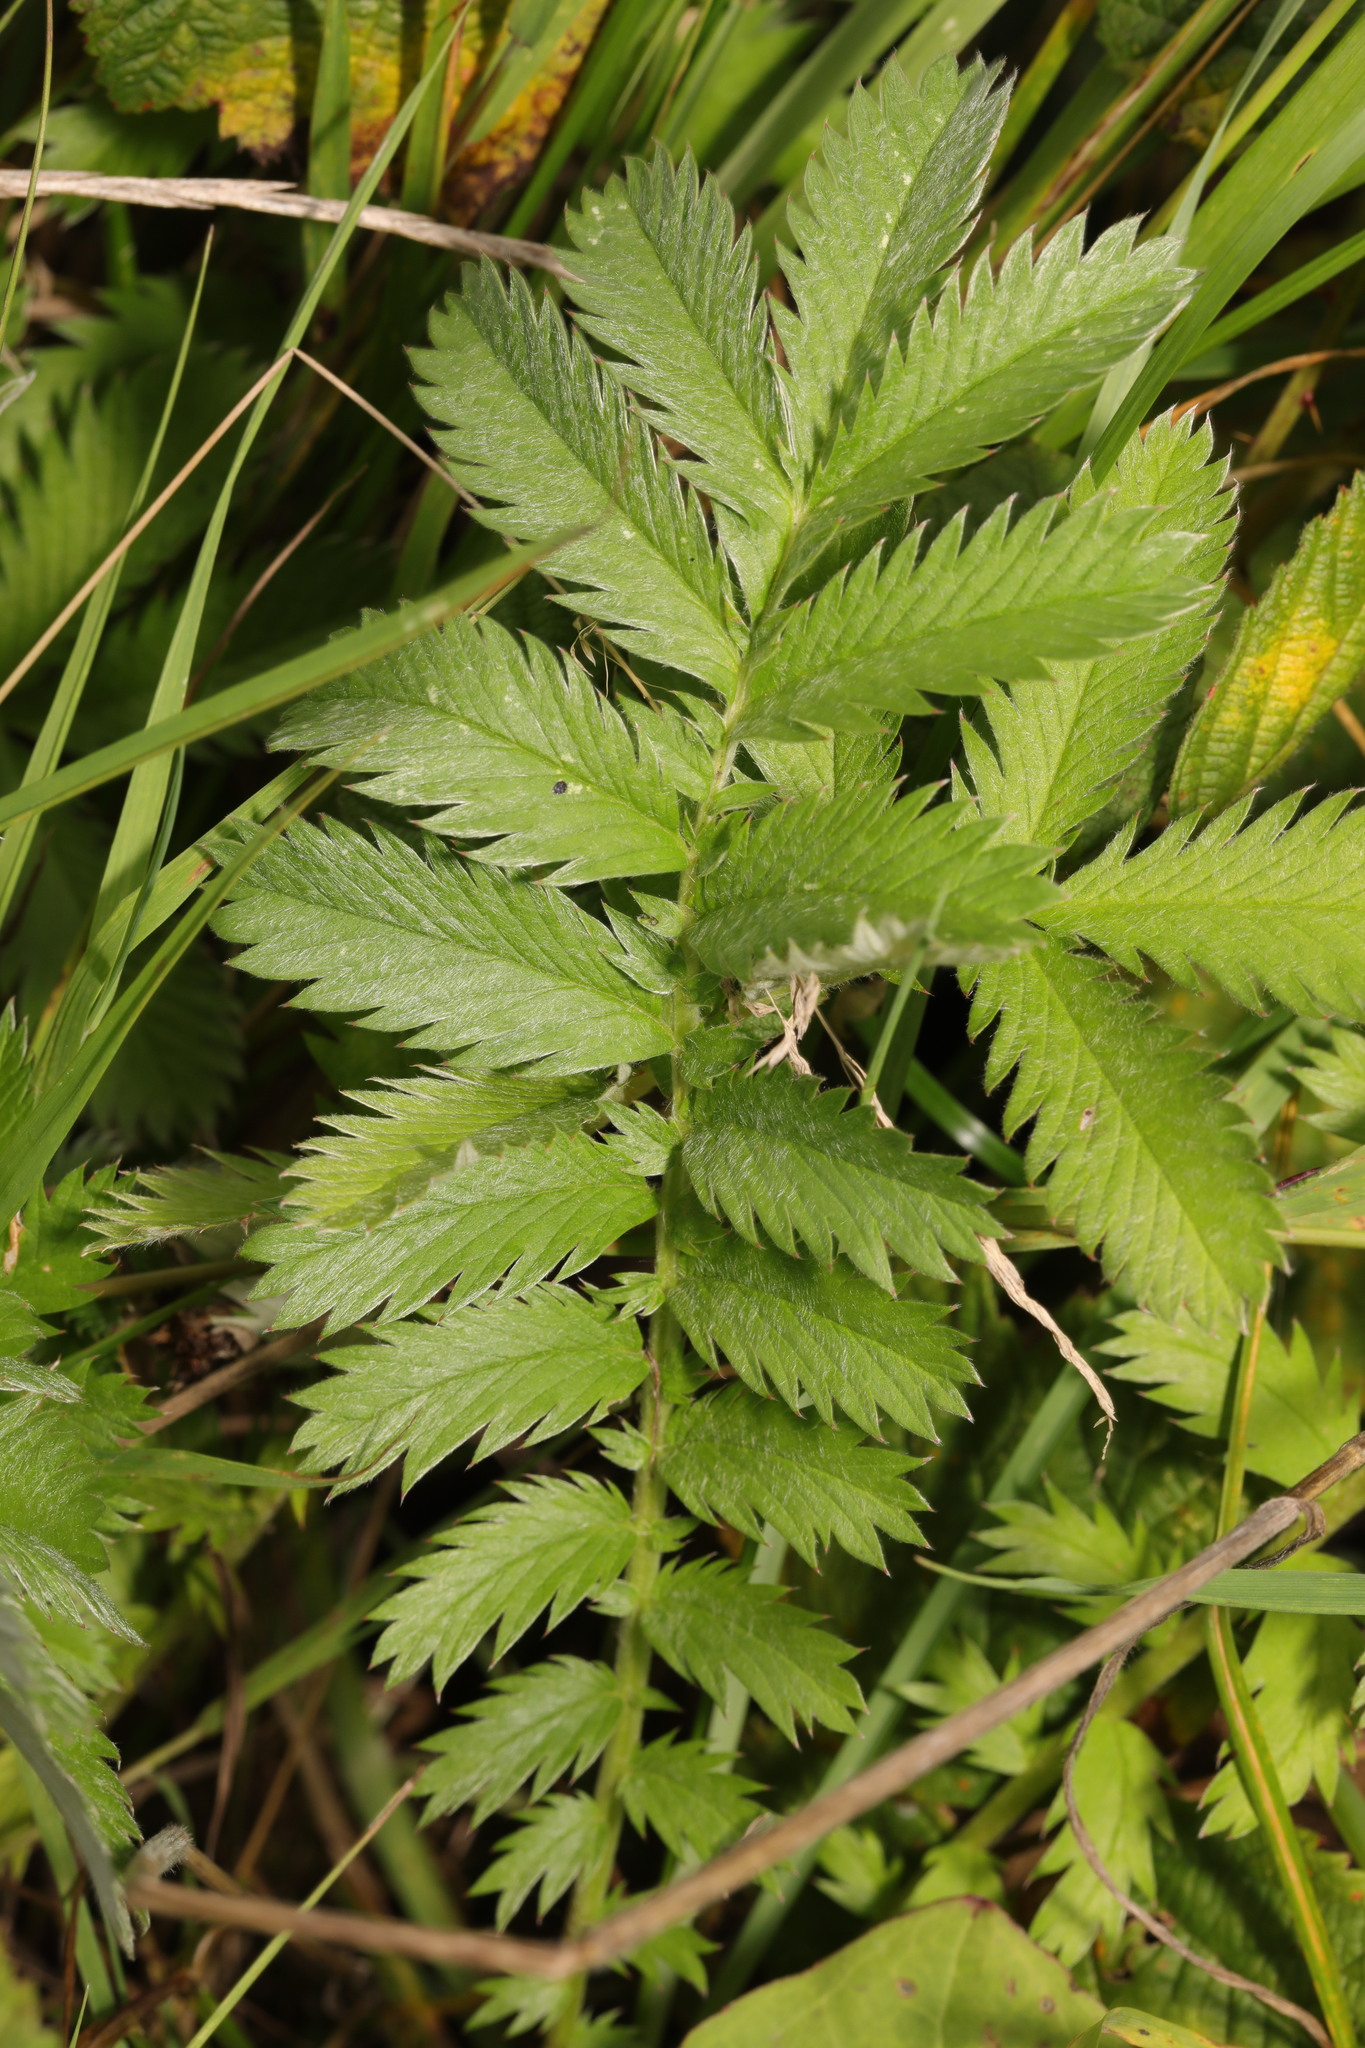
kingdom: Plantae
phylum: Tracheophyta
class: Magnoliopsida
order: Rosales
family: Rosaceae
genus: Argentina
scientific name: Argentina anserina
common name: Common silverweed
